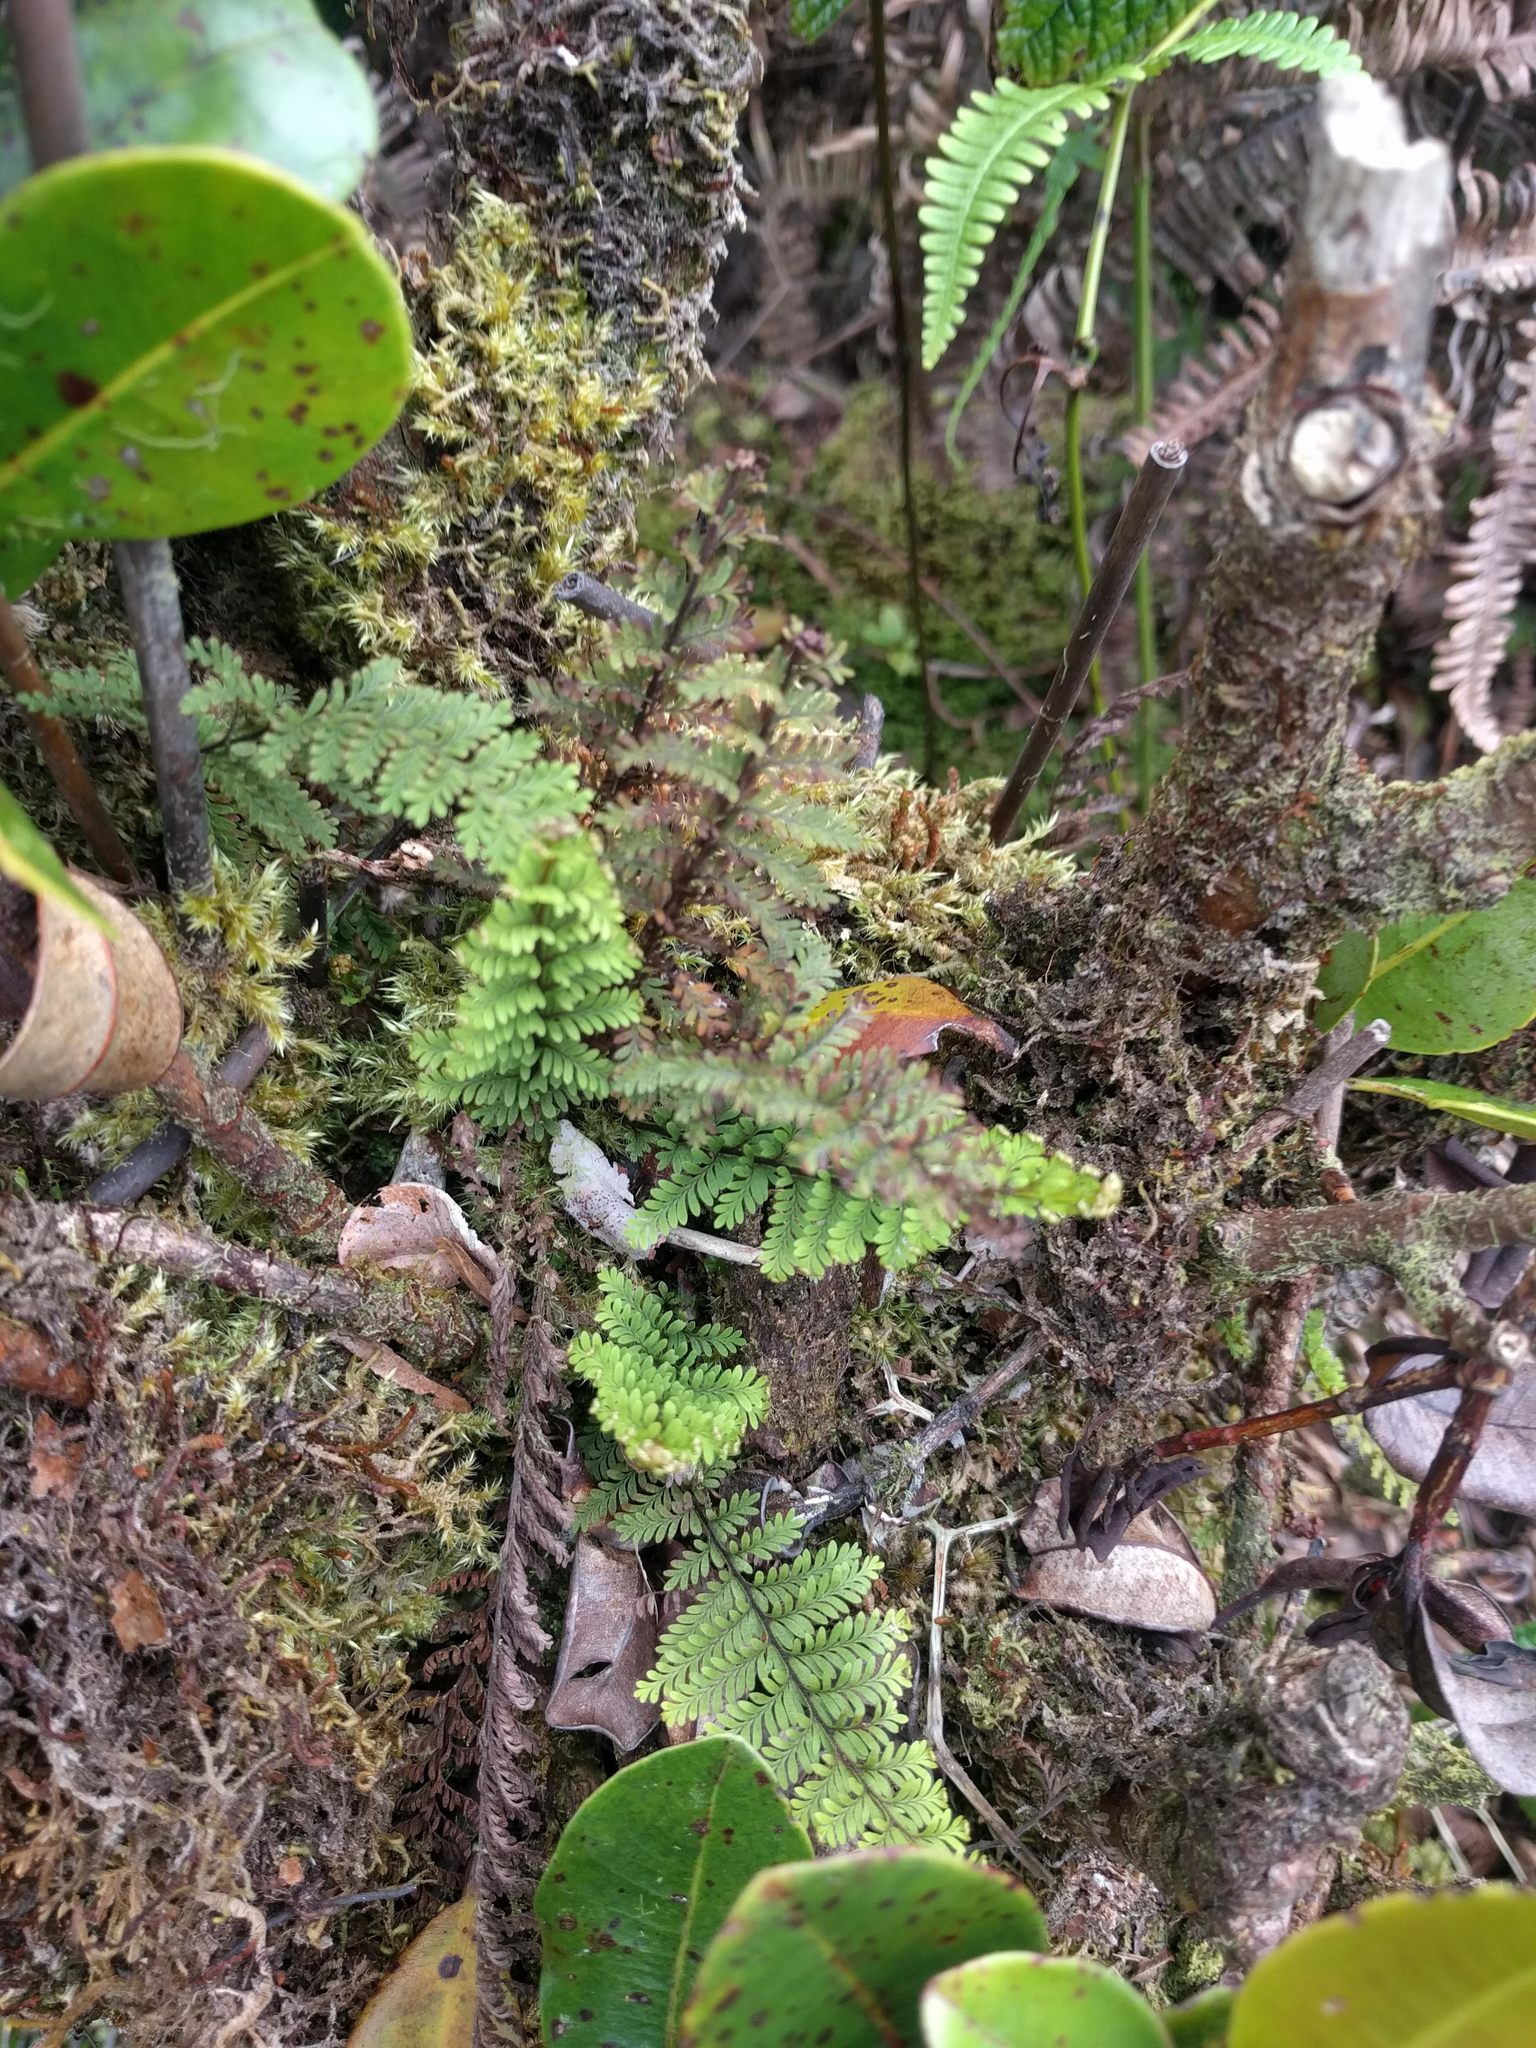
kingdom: Plantae
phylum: Tracheophyta
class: Polypodiopsida
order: Polypodiales
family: Polypodiaceae
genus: Adenophorus
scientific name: Adenophorus tamariscinus
